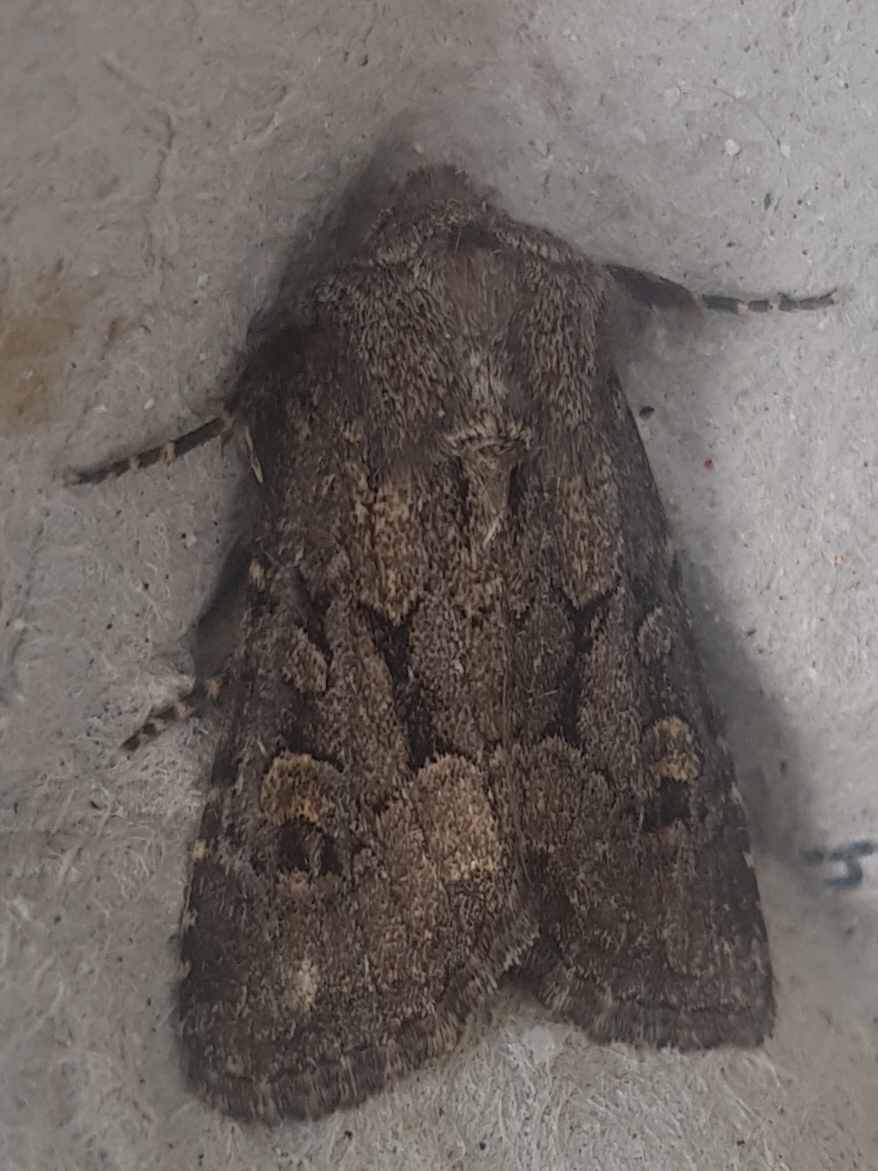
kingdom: Animalia
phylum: Arthropoda
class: Insecta
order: Lepidoptera
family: Noctuidae
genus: Luperina
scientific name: Luperina testacea
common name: Flounced rustic
